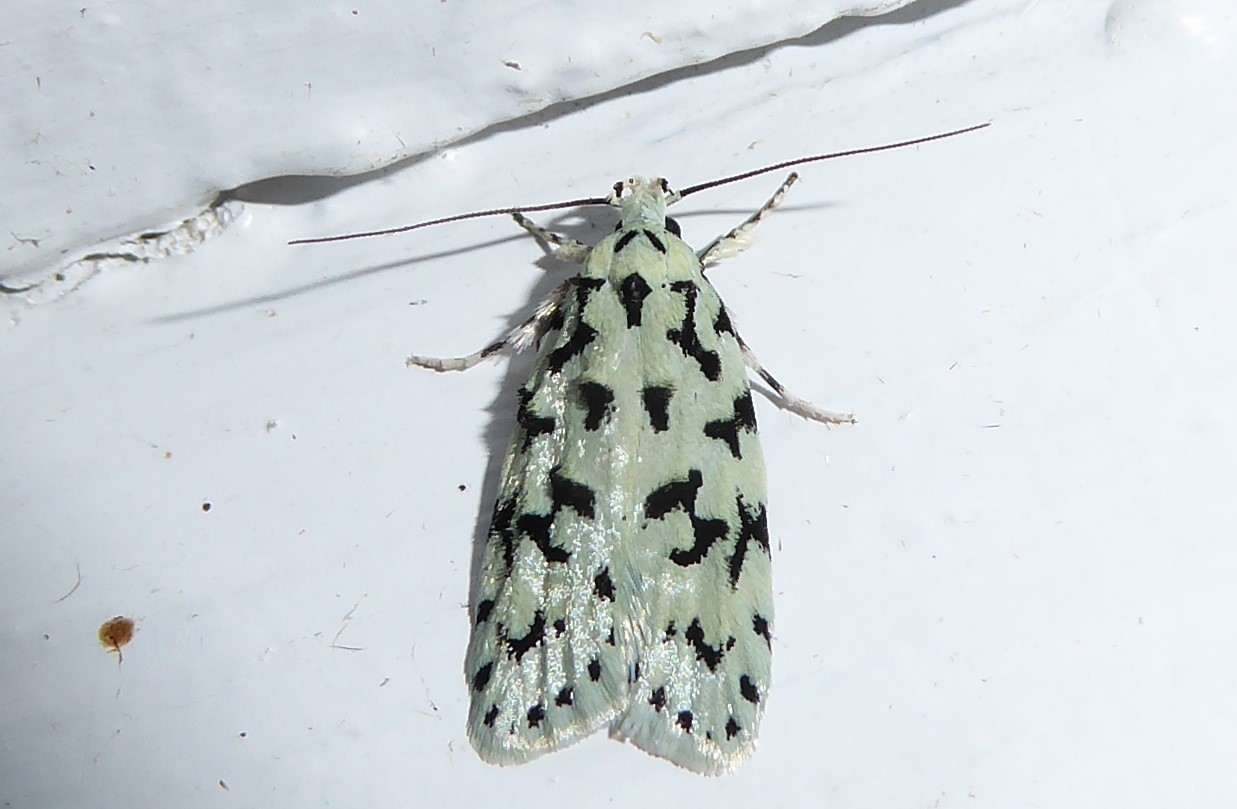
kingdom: Animalia
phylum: Arthropoda
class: Insecta
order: Lepidoptera
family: Oecophoridae
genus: Izatha
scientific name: Izatha huttoni
